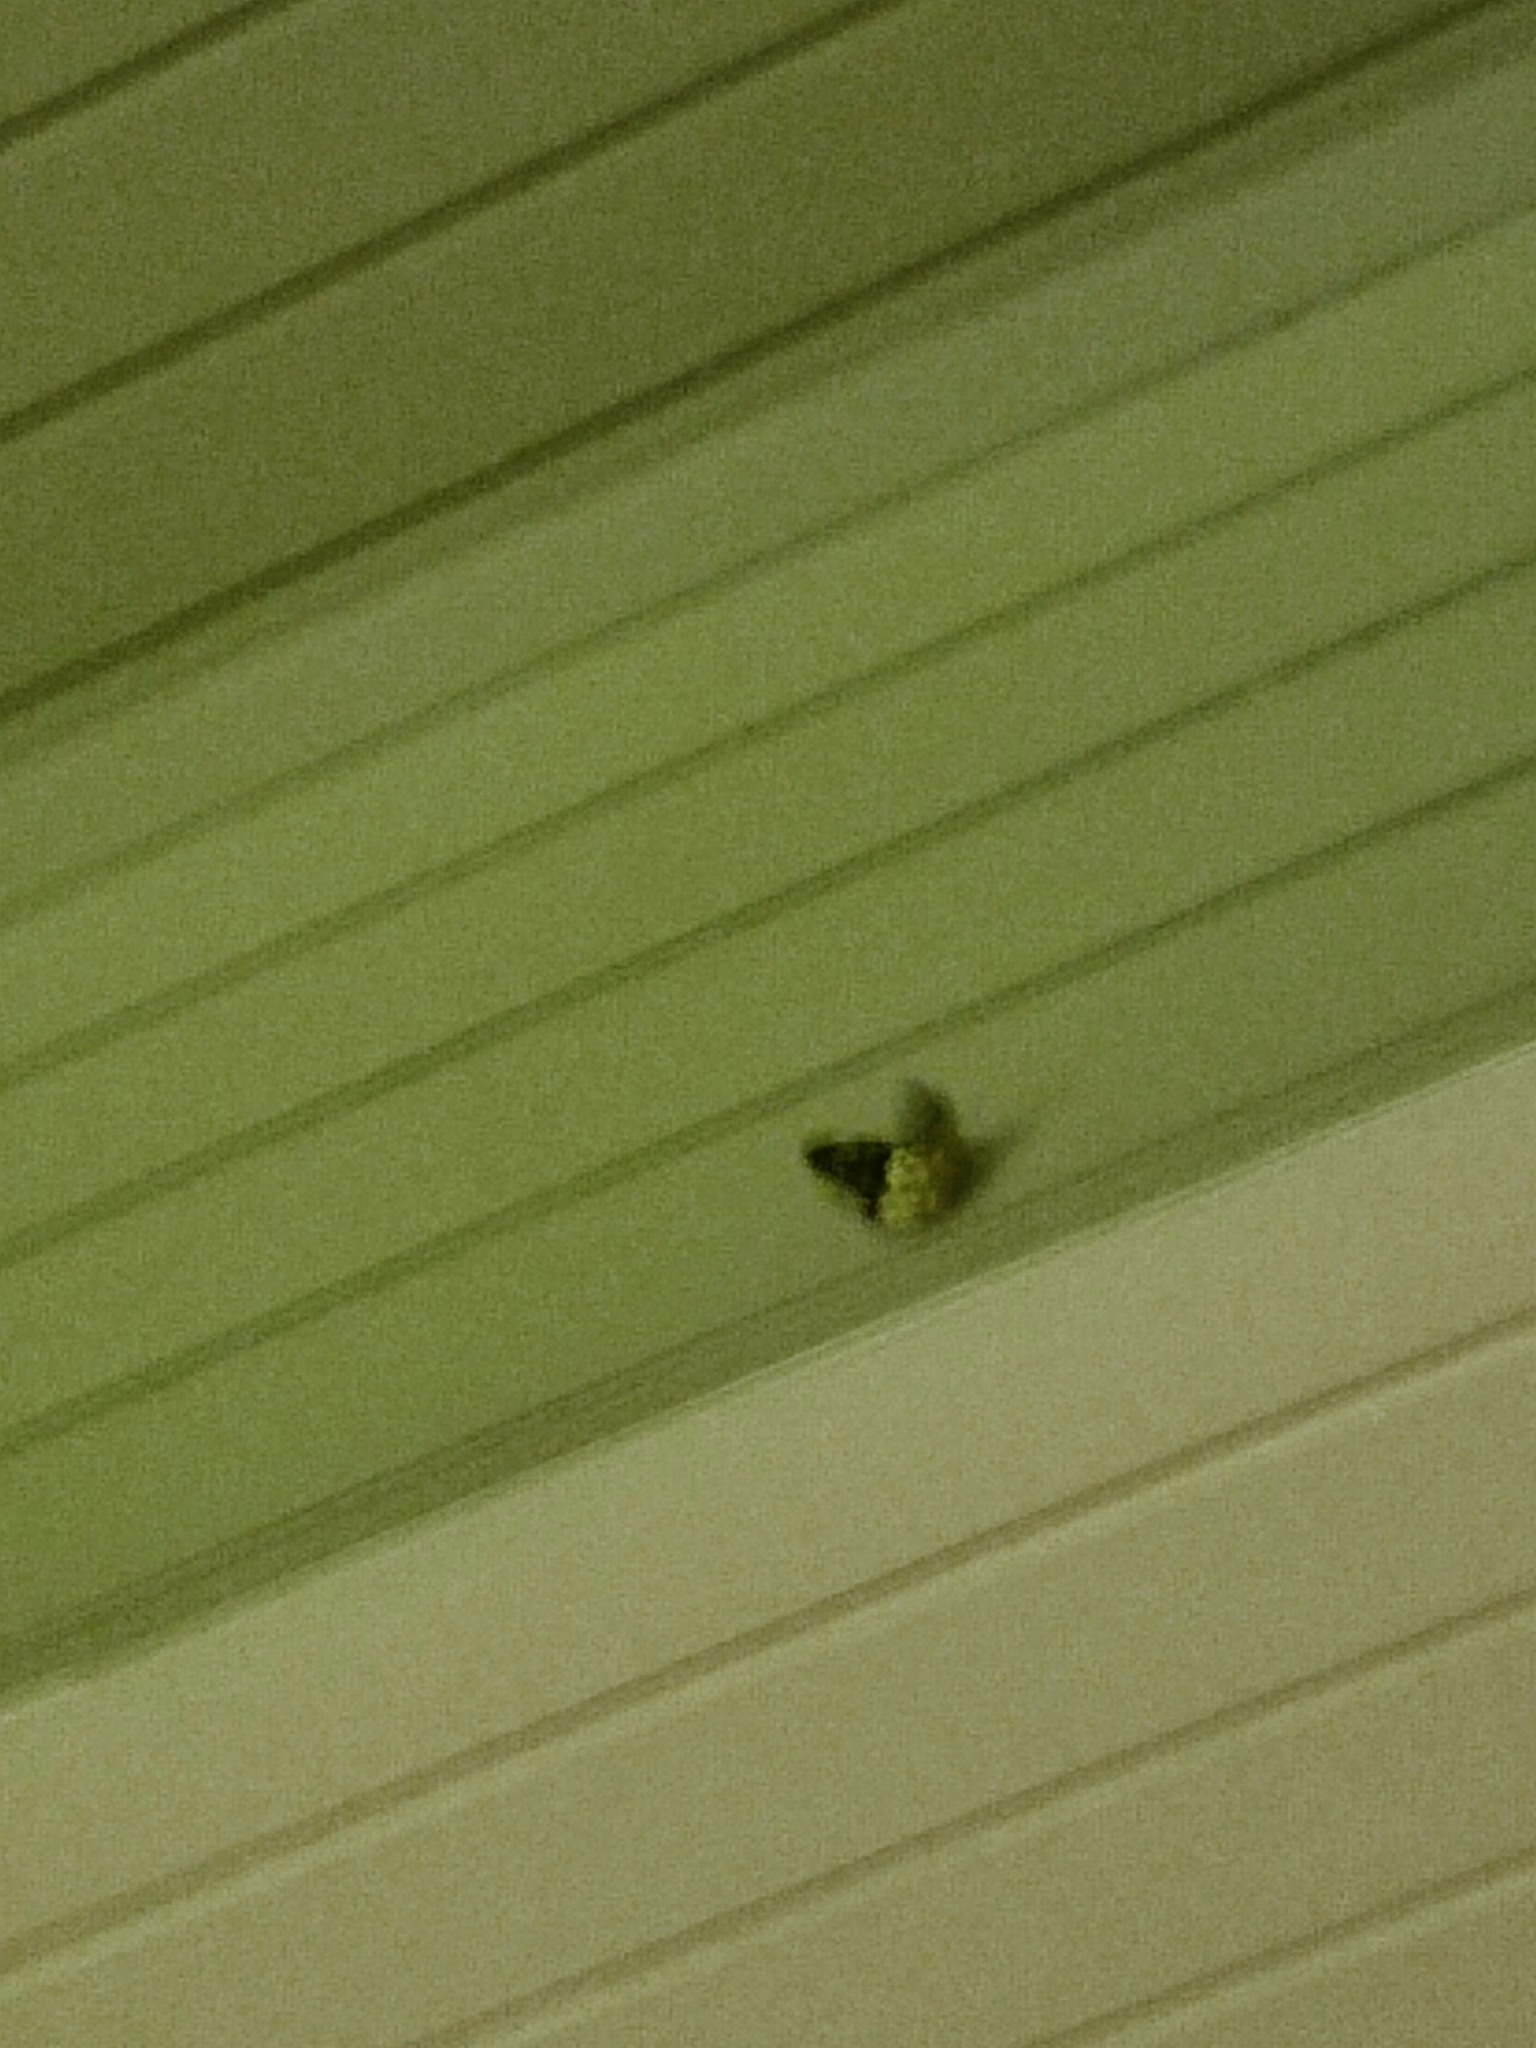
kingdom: Animalia
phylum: Arthropoda
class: Insecta
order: Lepidoptera
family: Geometridae
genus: Dysphania
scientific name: Dysphania militaris
